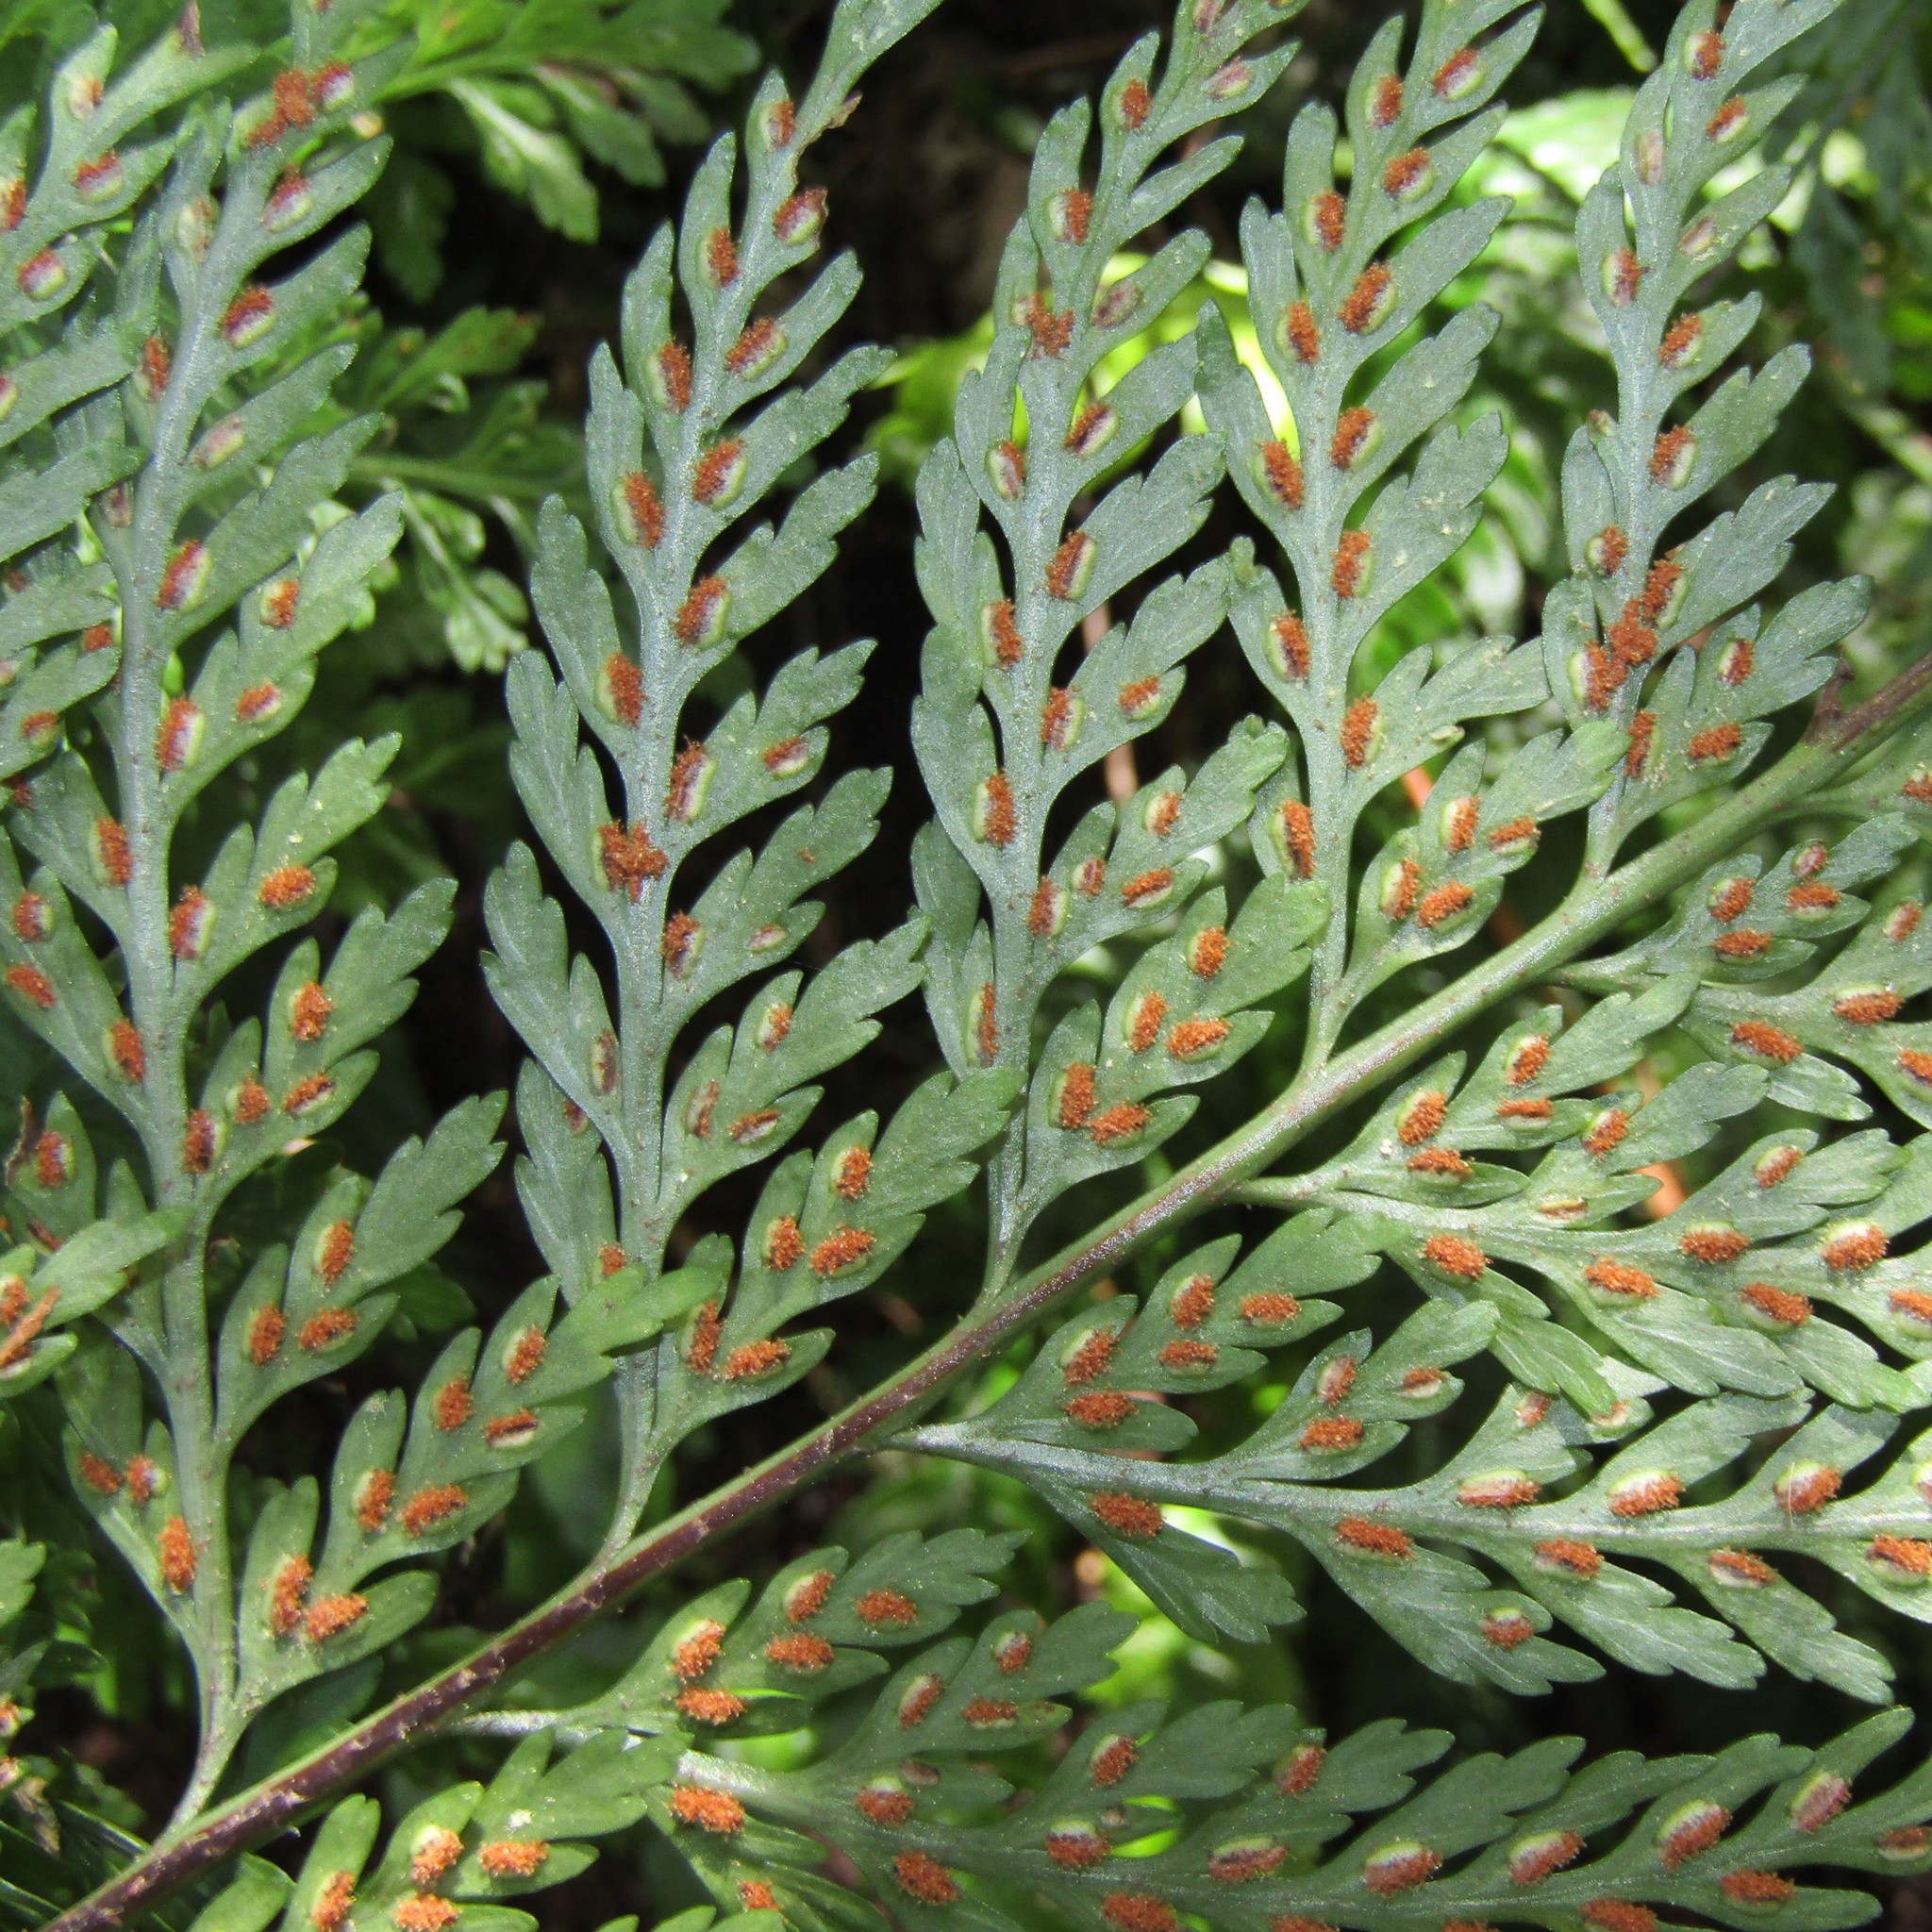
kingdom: Plantae
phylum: Tracheophyta
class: Polypodiopsida
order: Polypodiales
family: Aspleniaceae
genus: Asplenium
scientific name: Asplenium
